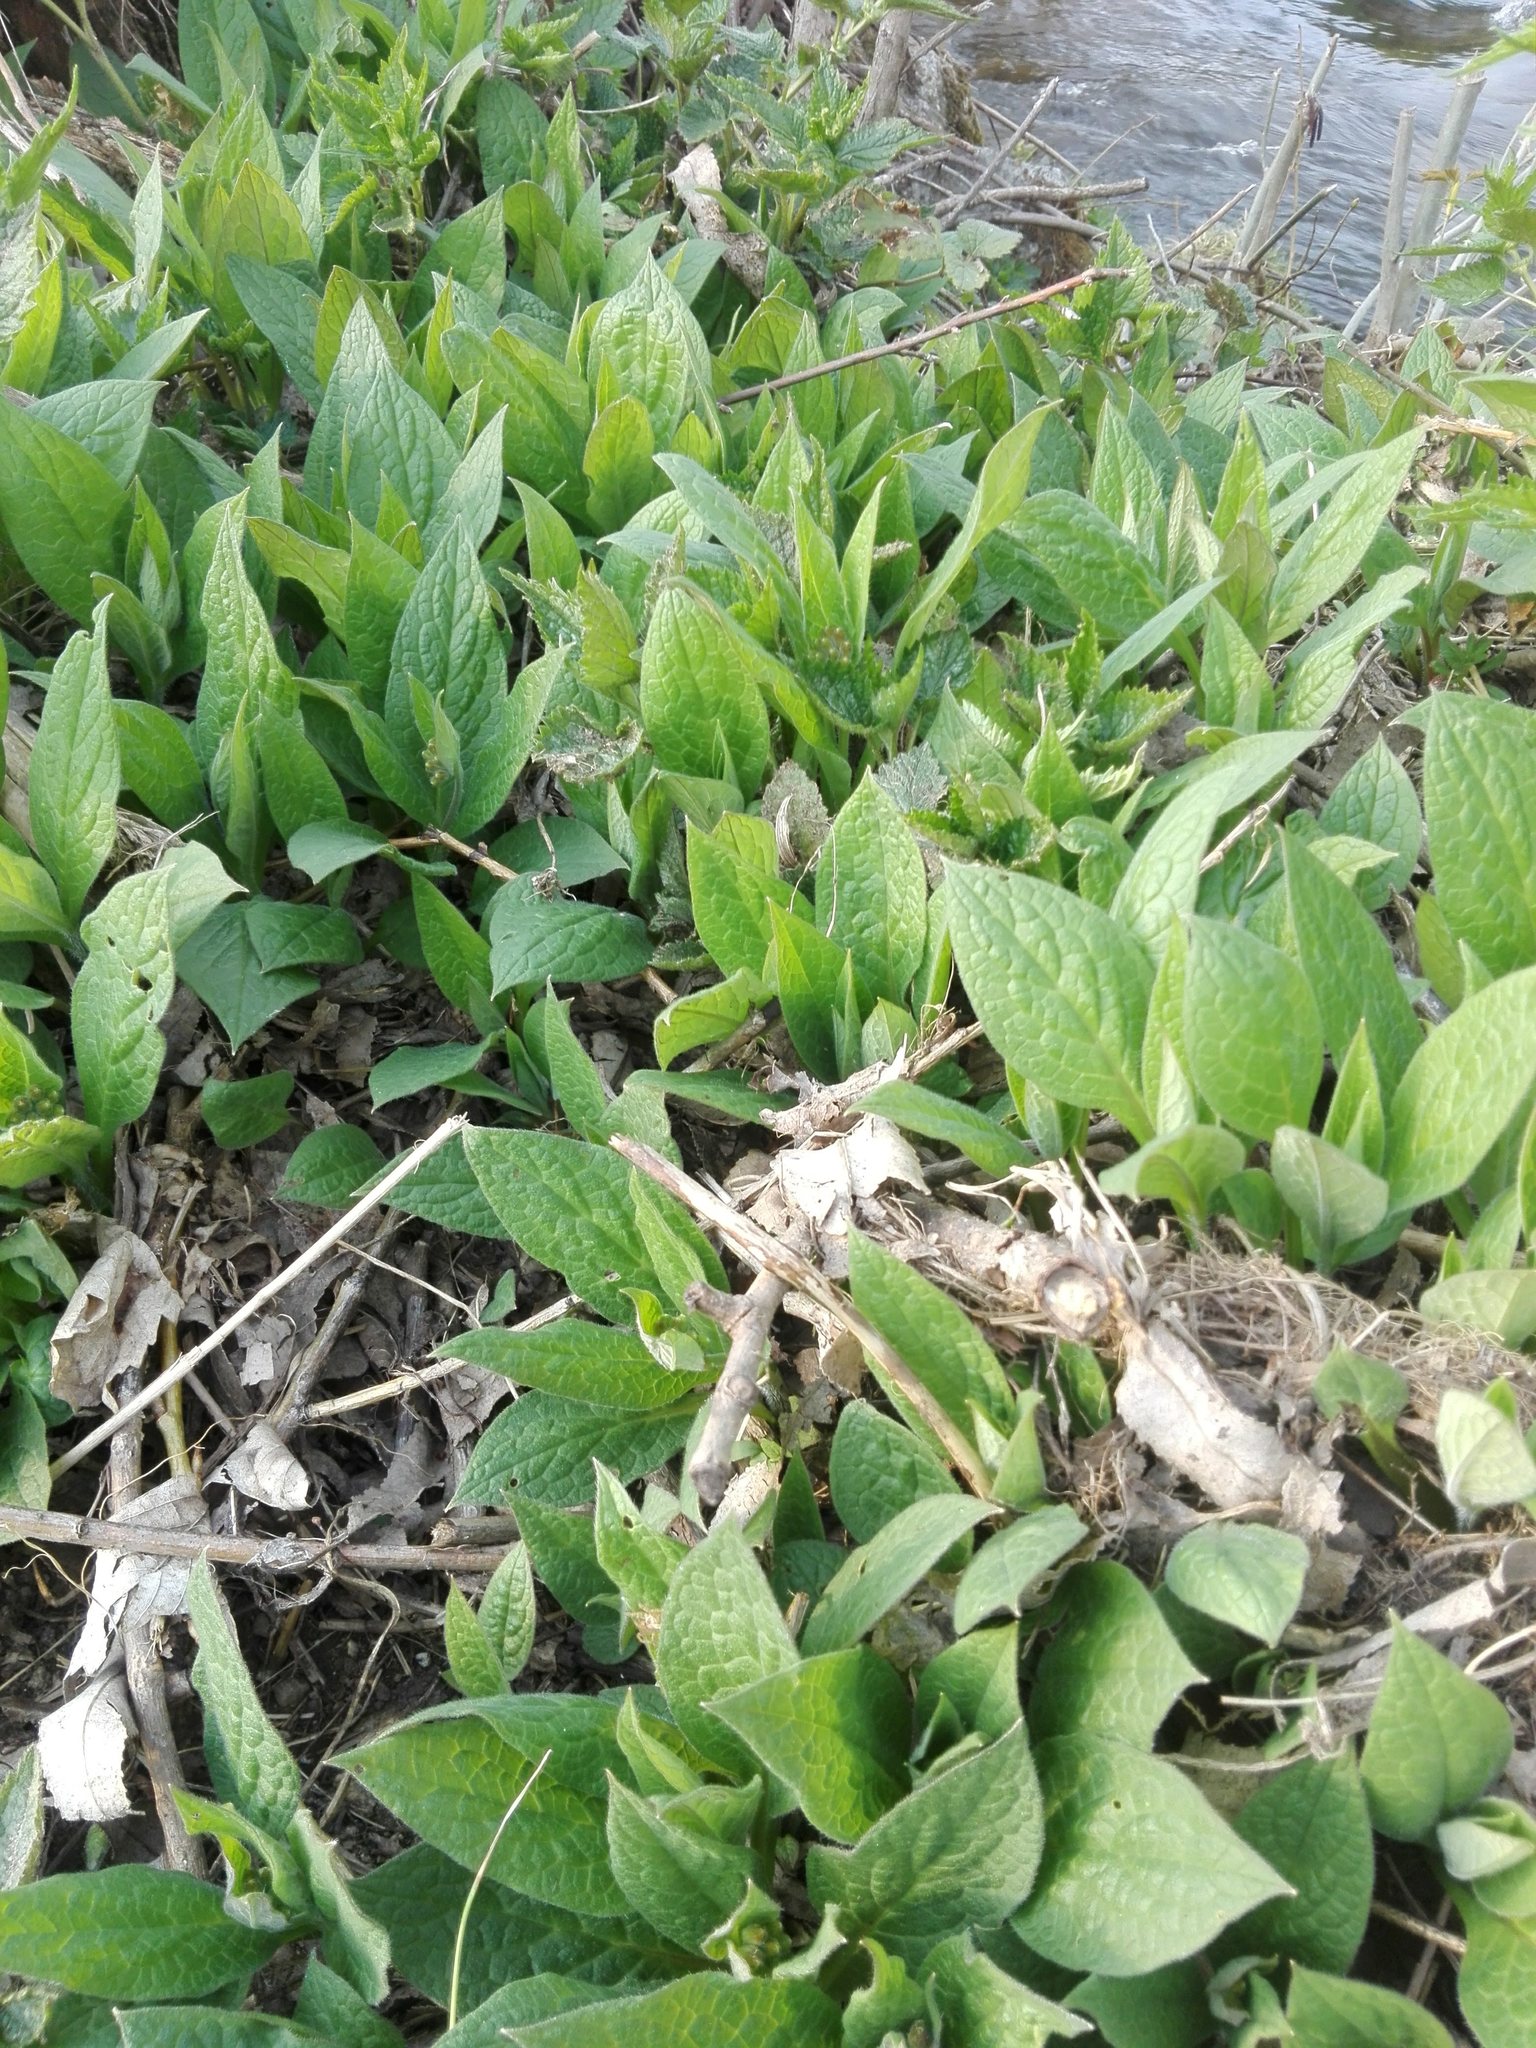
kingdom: Plantae
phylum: Tracheophyta
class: Magnoliopsida
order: Boraginales
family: Boraginaceae
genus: Symphytum
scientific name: Symphytum tuberosum
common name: Tuberous comfrey
